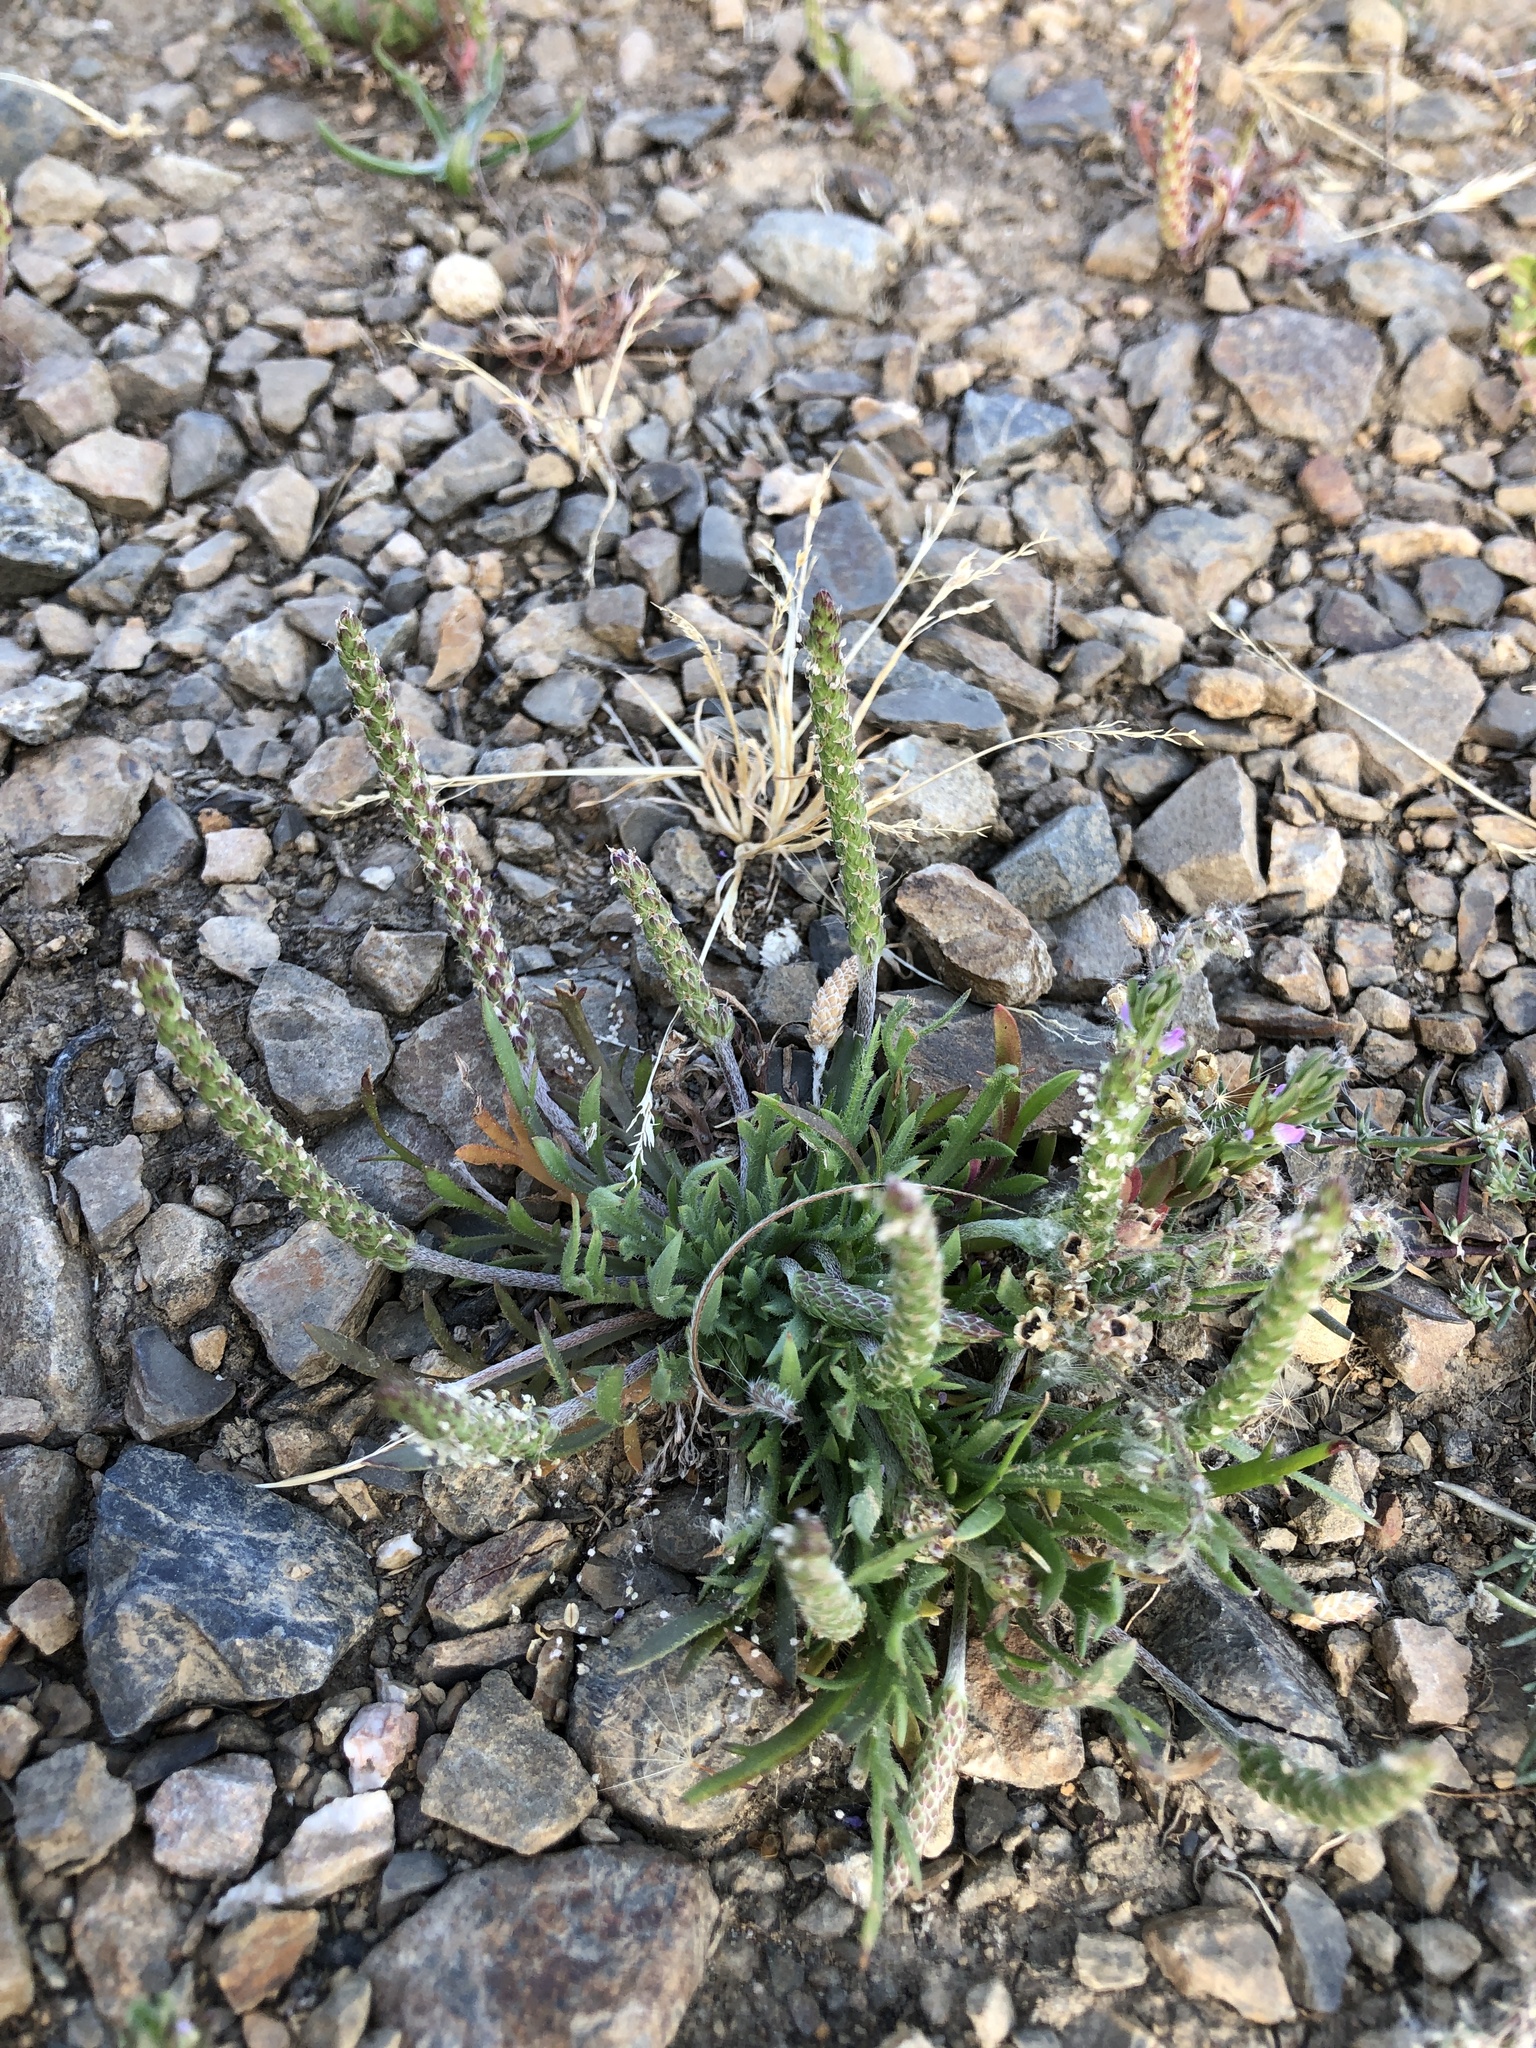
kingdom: Plantae
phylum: Tracheophyta
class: Magnoliopsida
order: Lamiales
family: Plantaginaceae
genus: Plantago
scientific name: Plantago coronopus
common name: Buck's-horn plantain
